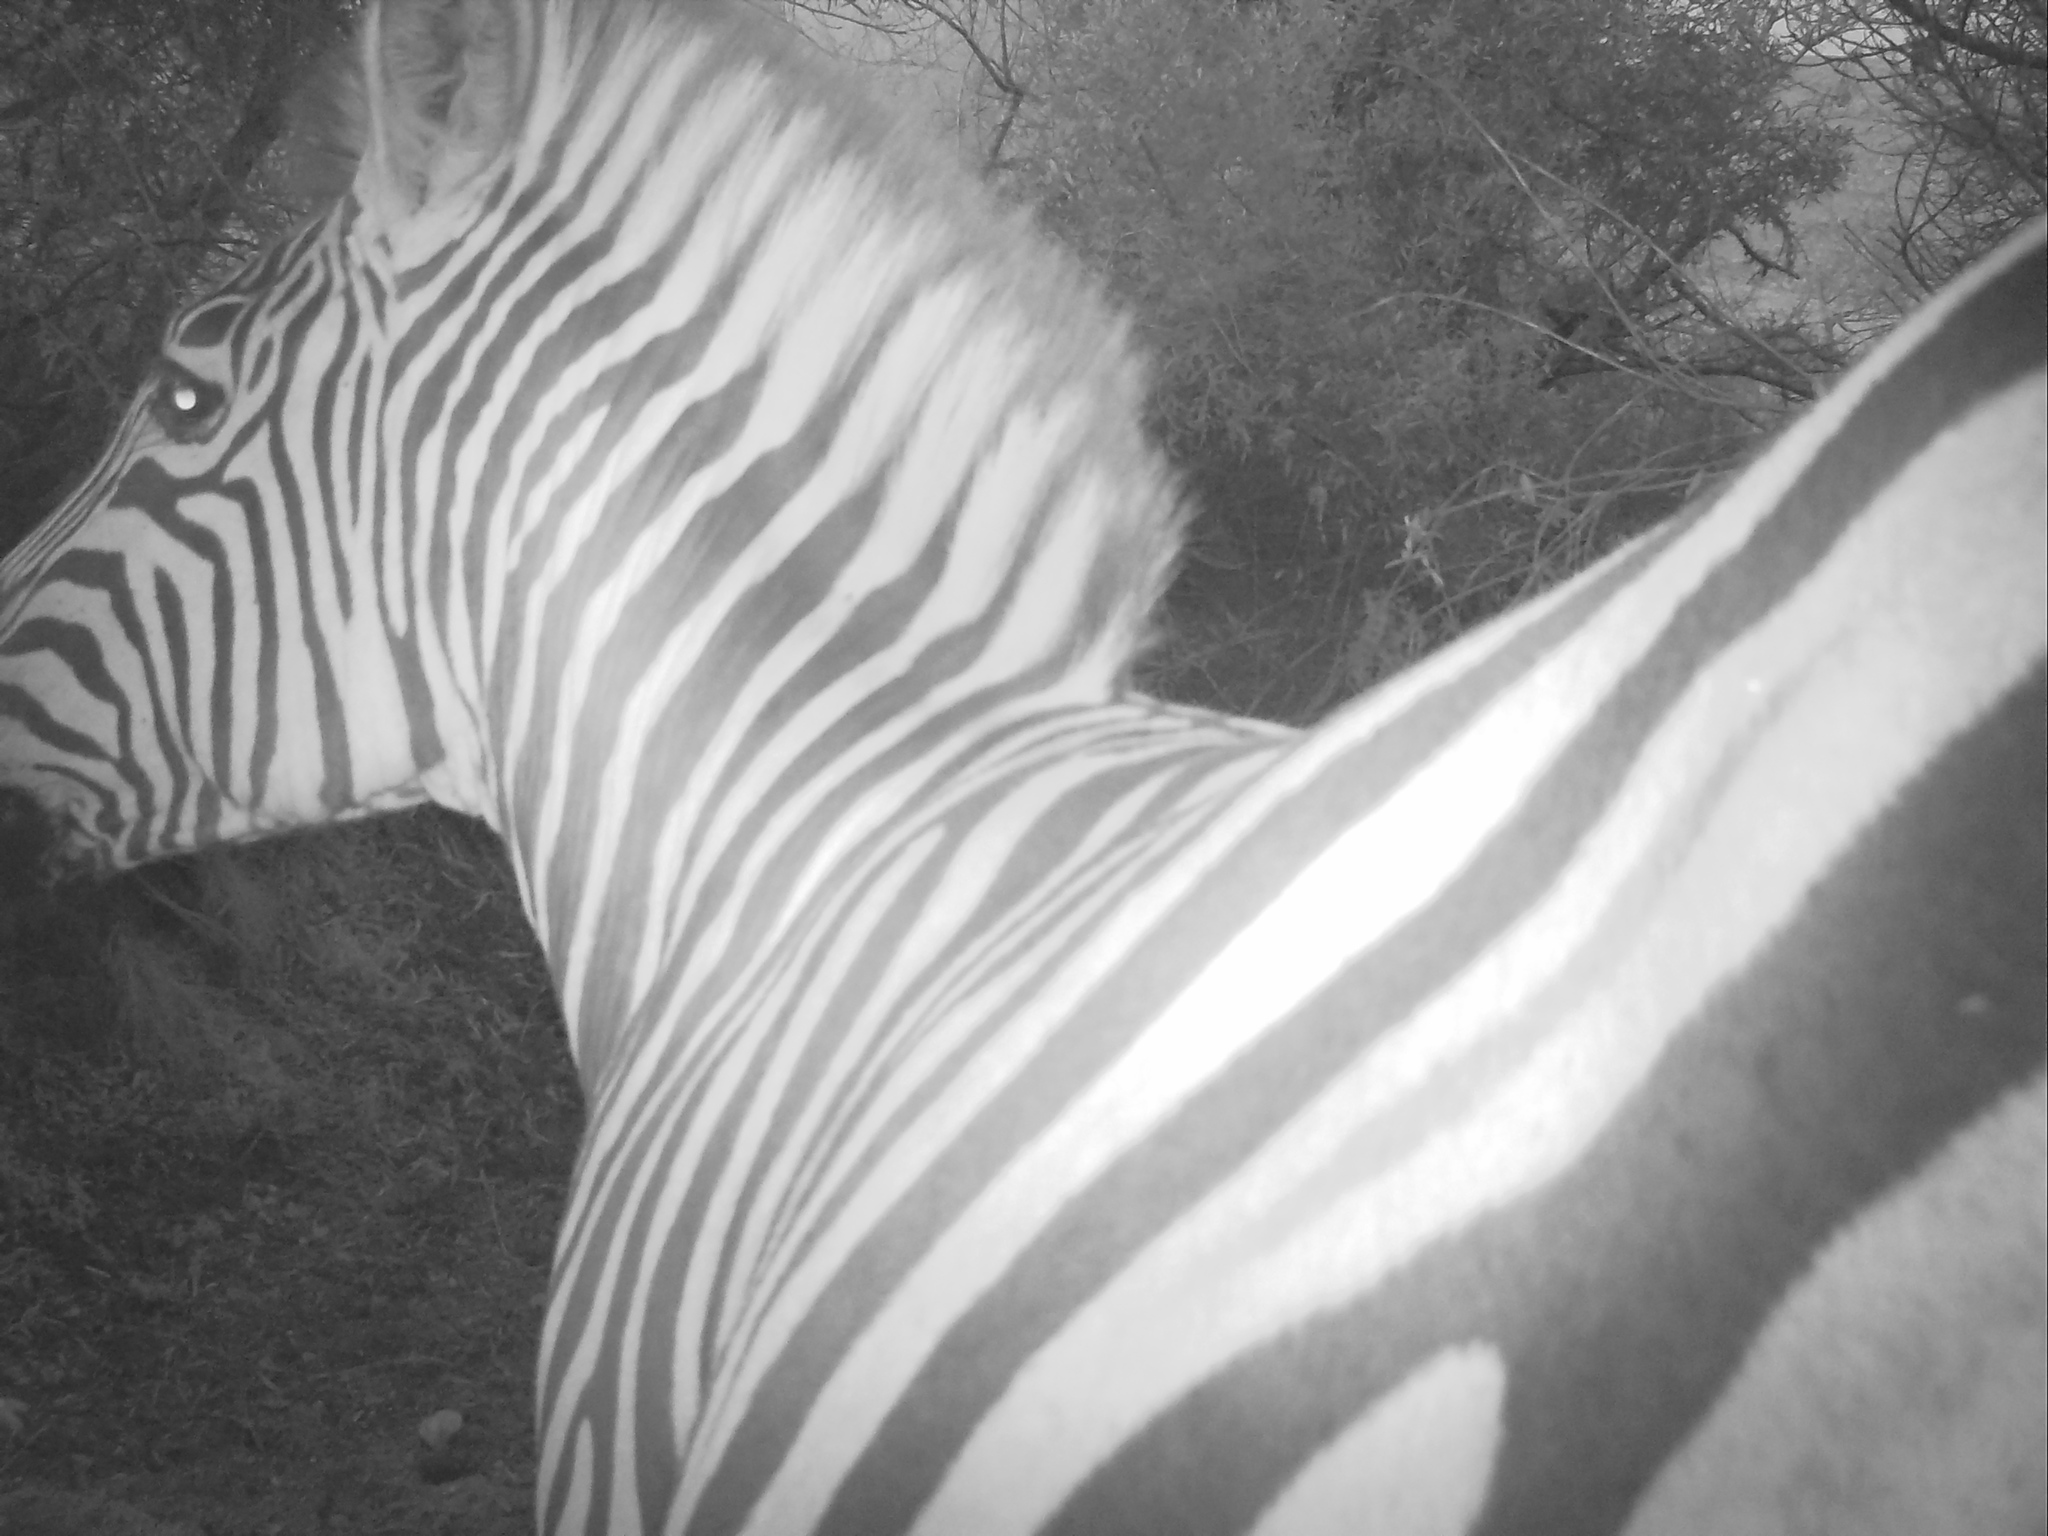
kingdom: Animalia
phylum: Chordata
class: Mammalia
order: Perissodactyla
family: Equidae
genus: Equus
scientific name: Equus quagga
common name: Plains zebra
